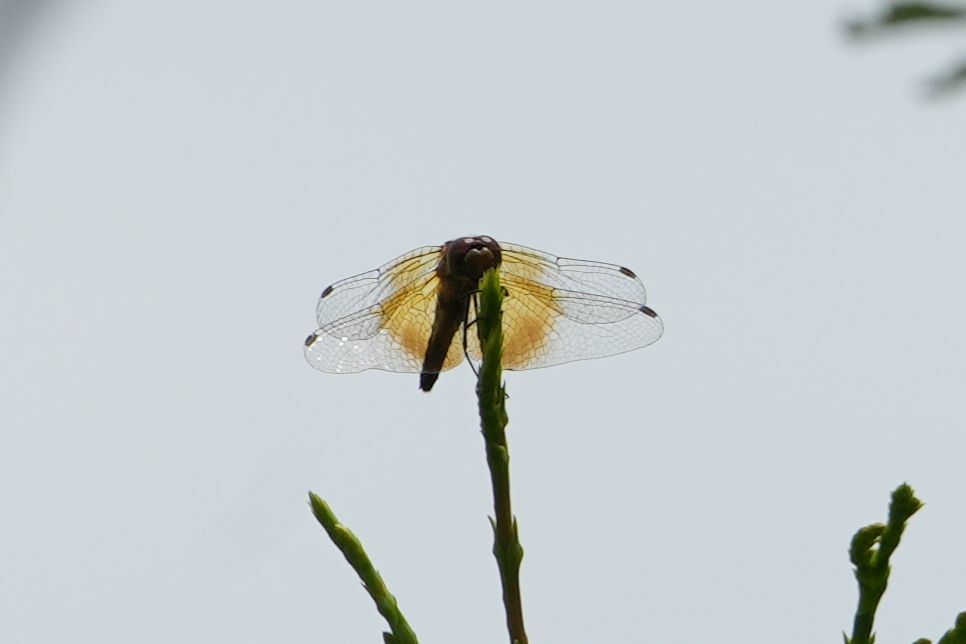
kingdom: Animalia
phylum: Arthropoda
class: Insecta
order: Odonata
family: Libellulidae
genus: Sympetrum
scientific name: Sympetrum semicinctum
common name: Band-winged meadowhawk
